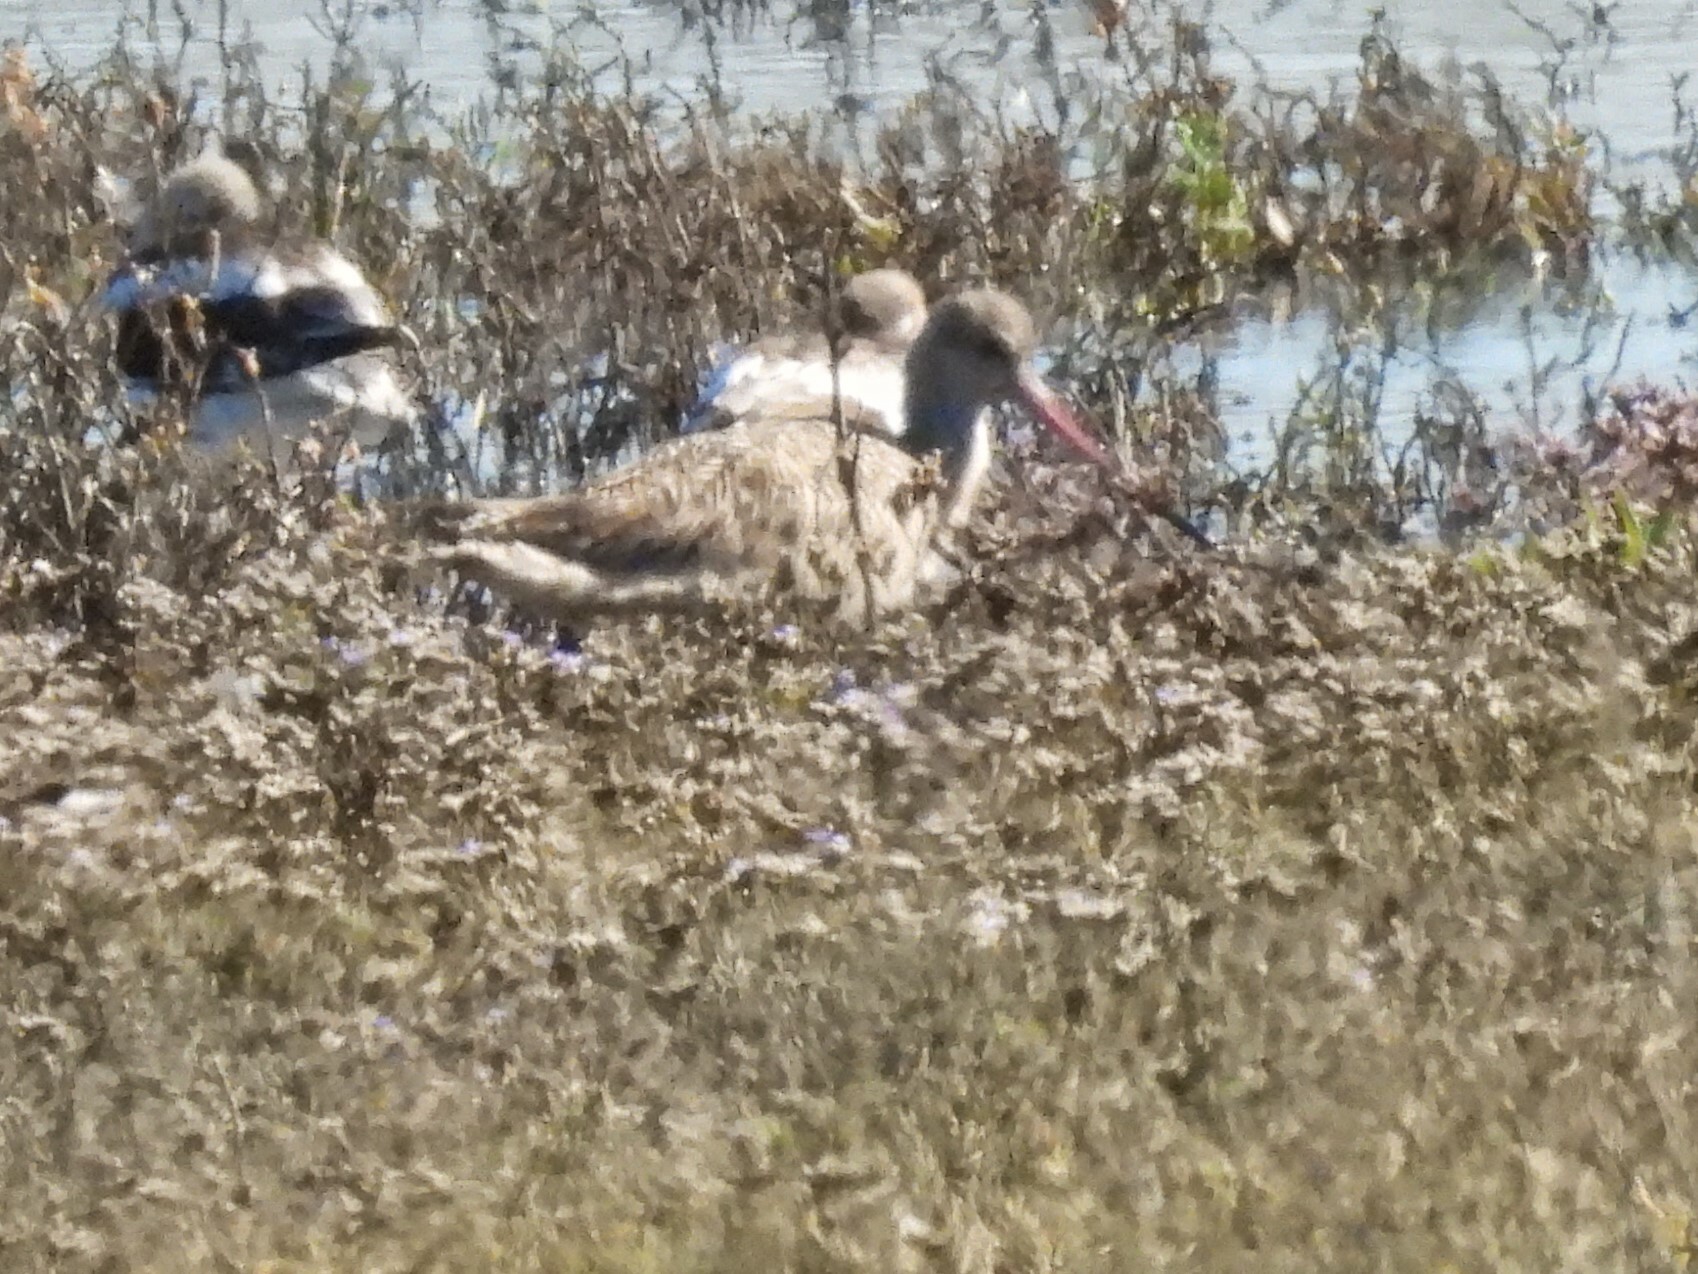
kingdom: Animalia
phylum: Chordata
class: Aves
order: Charadriiformes
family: Scolopacidae
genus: Limosa
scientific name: Limosa fedoa
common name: Marbled godwit
